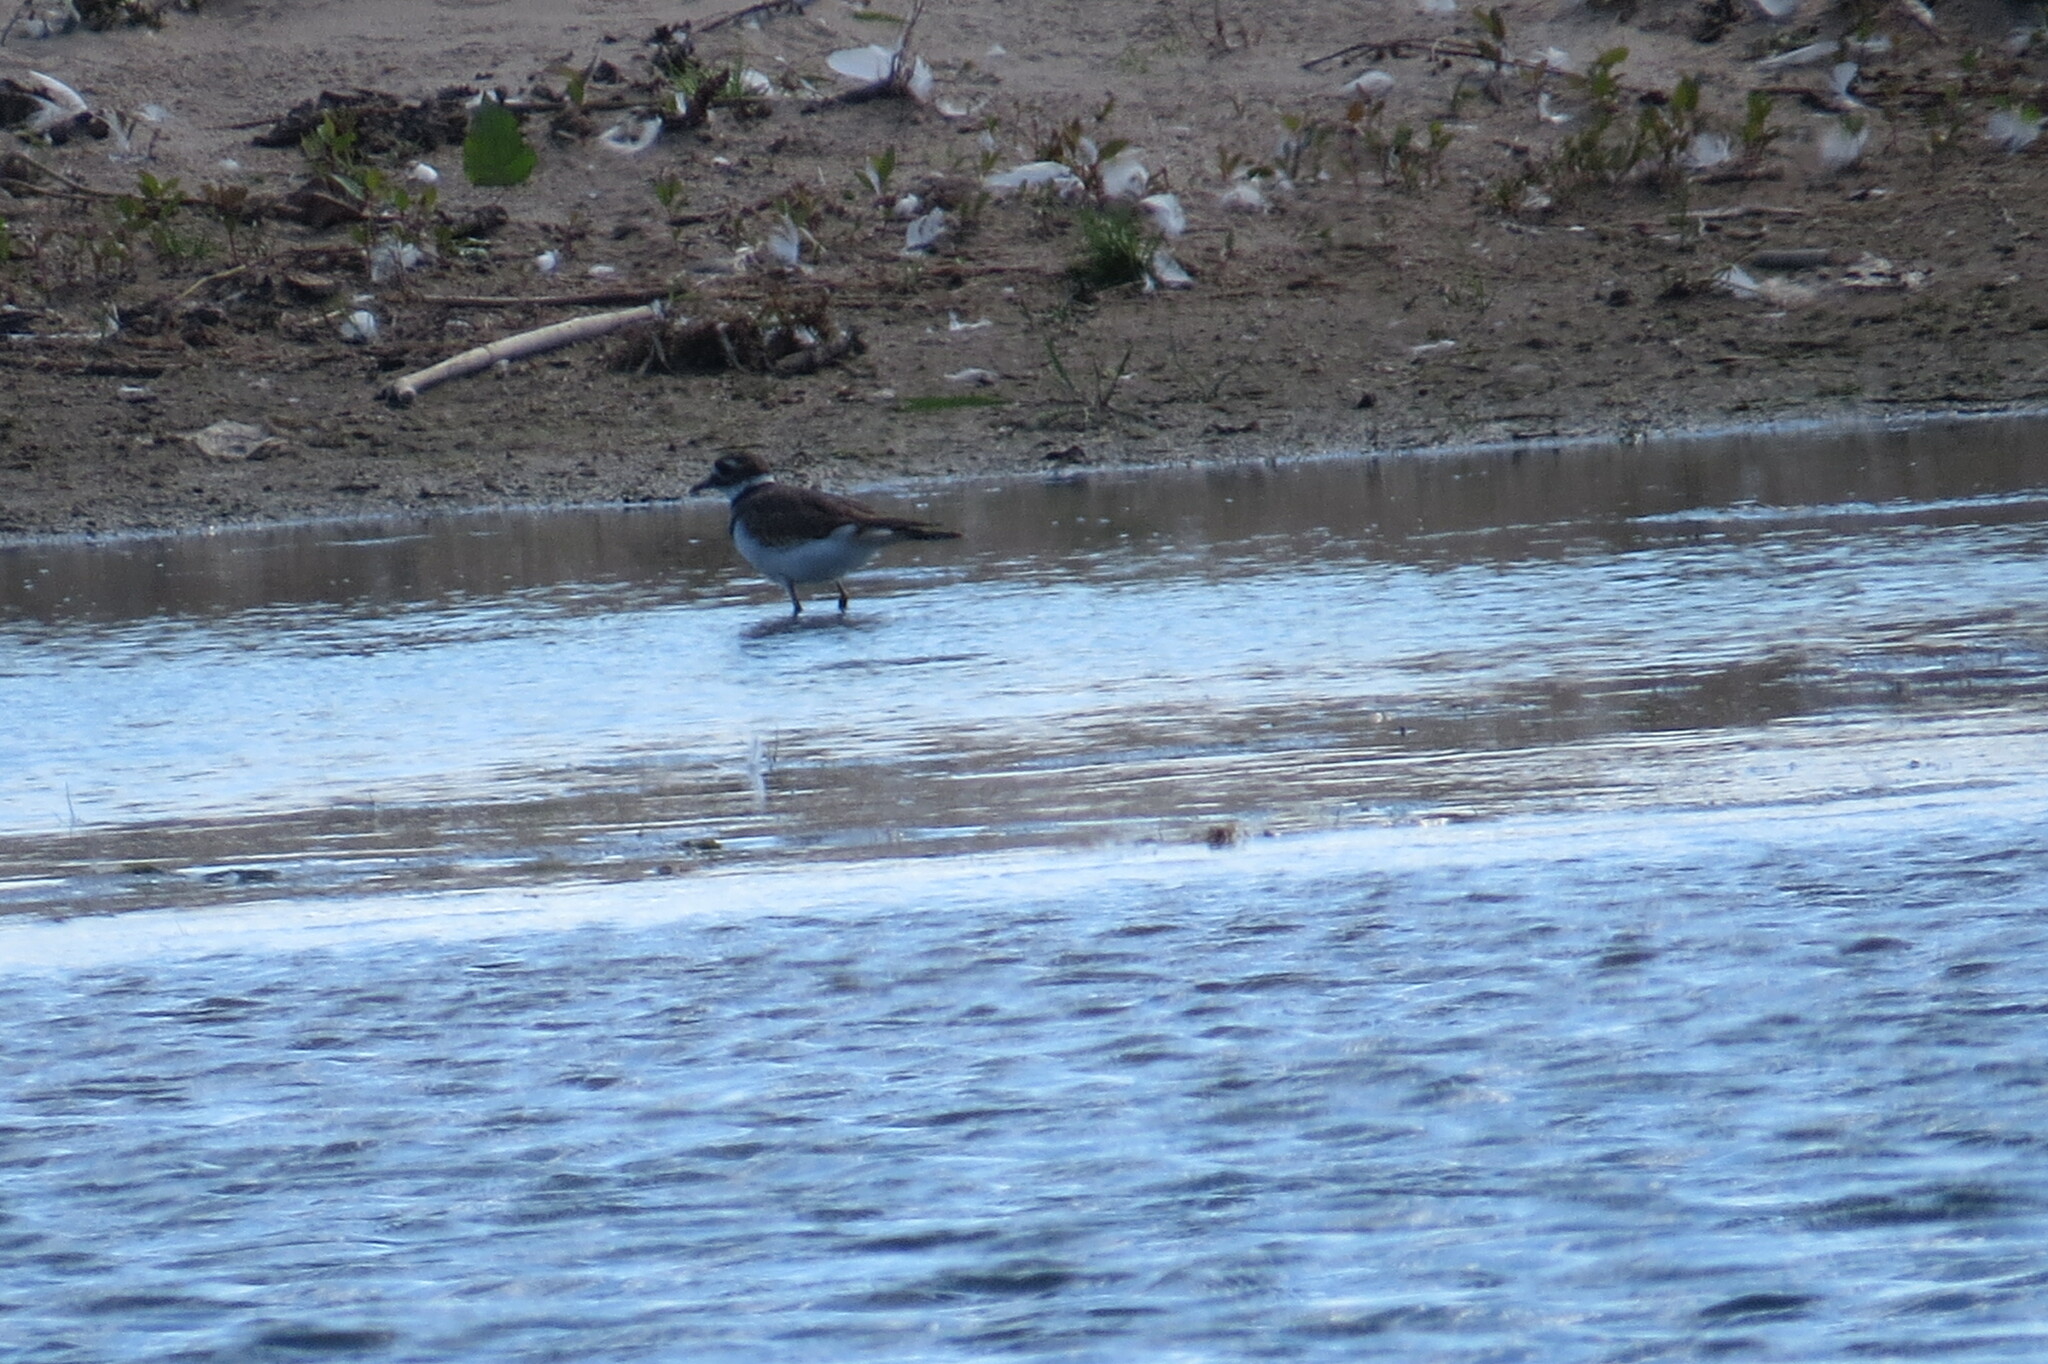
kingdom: Animalia
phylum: Chordata
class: Aves
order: Charadriiformes
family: Charadriidae
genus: Charadrius
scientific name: Charadrius vociferus
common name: Killdeer
